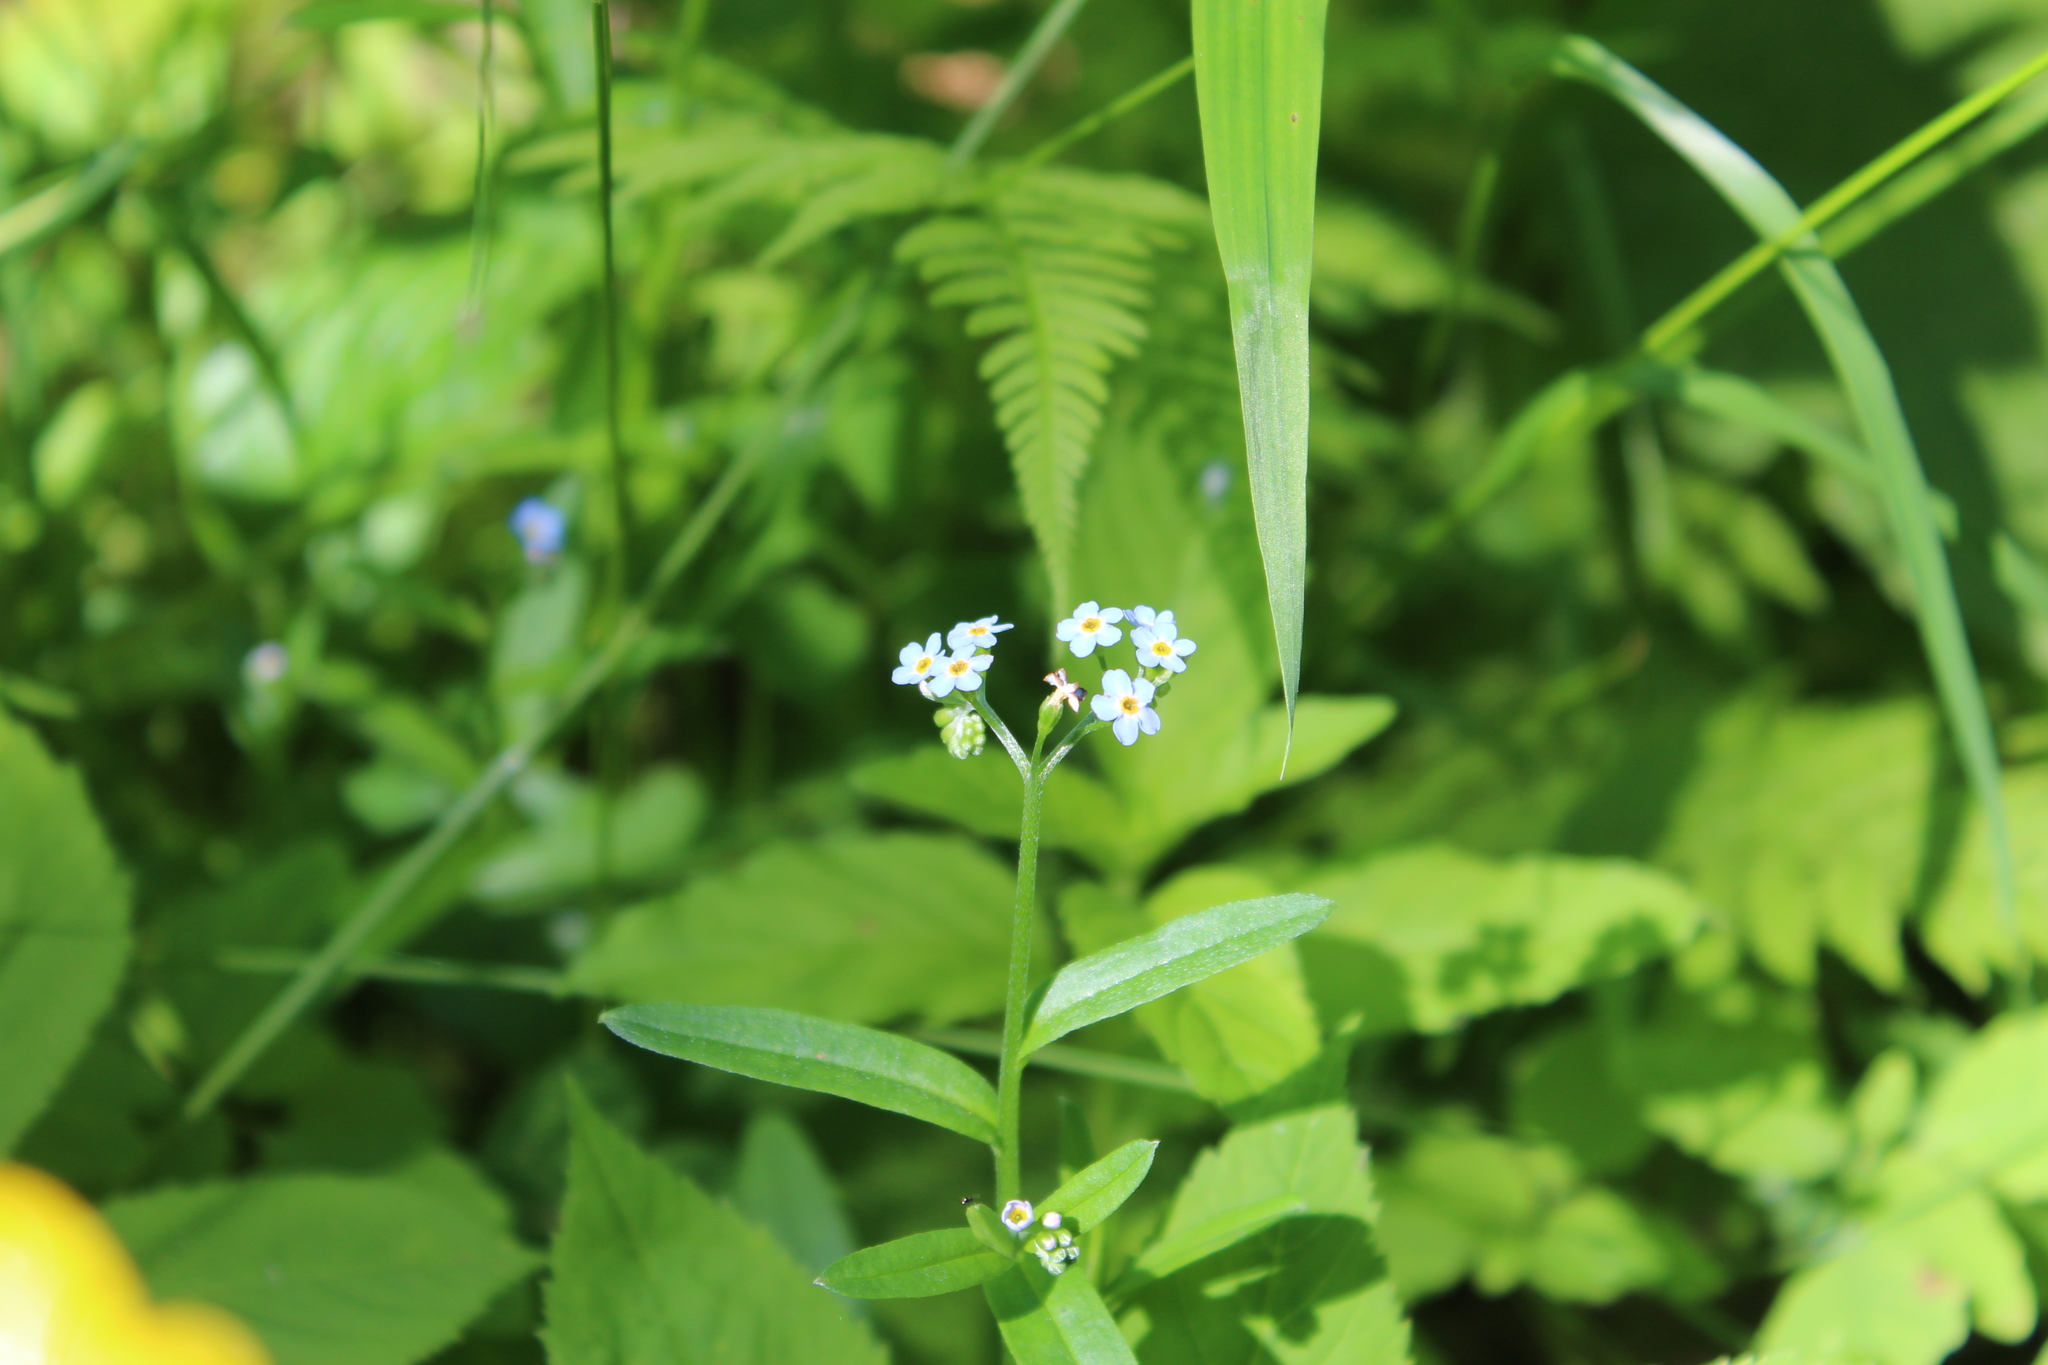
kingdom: Plantae
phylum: Tracheophyta
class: Magnoliopsida
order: Boraginales
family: Boraginaceae
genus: Myosotis
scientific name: Myosotis scorpioides
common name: Water forget-me-not
